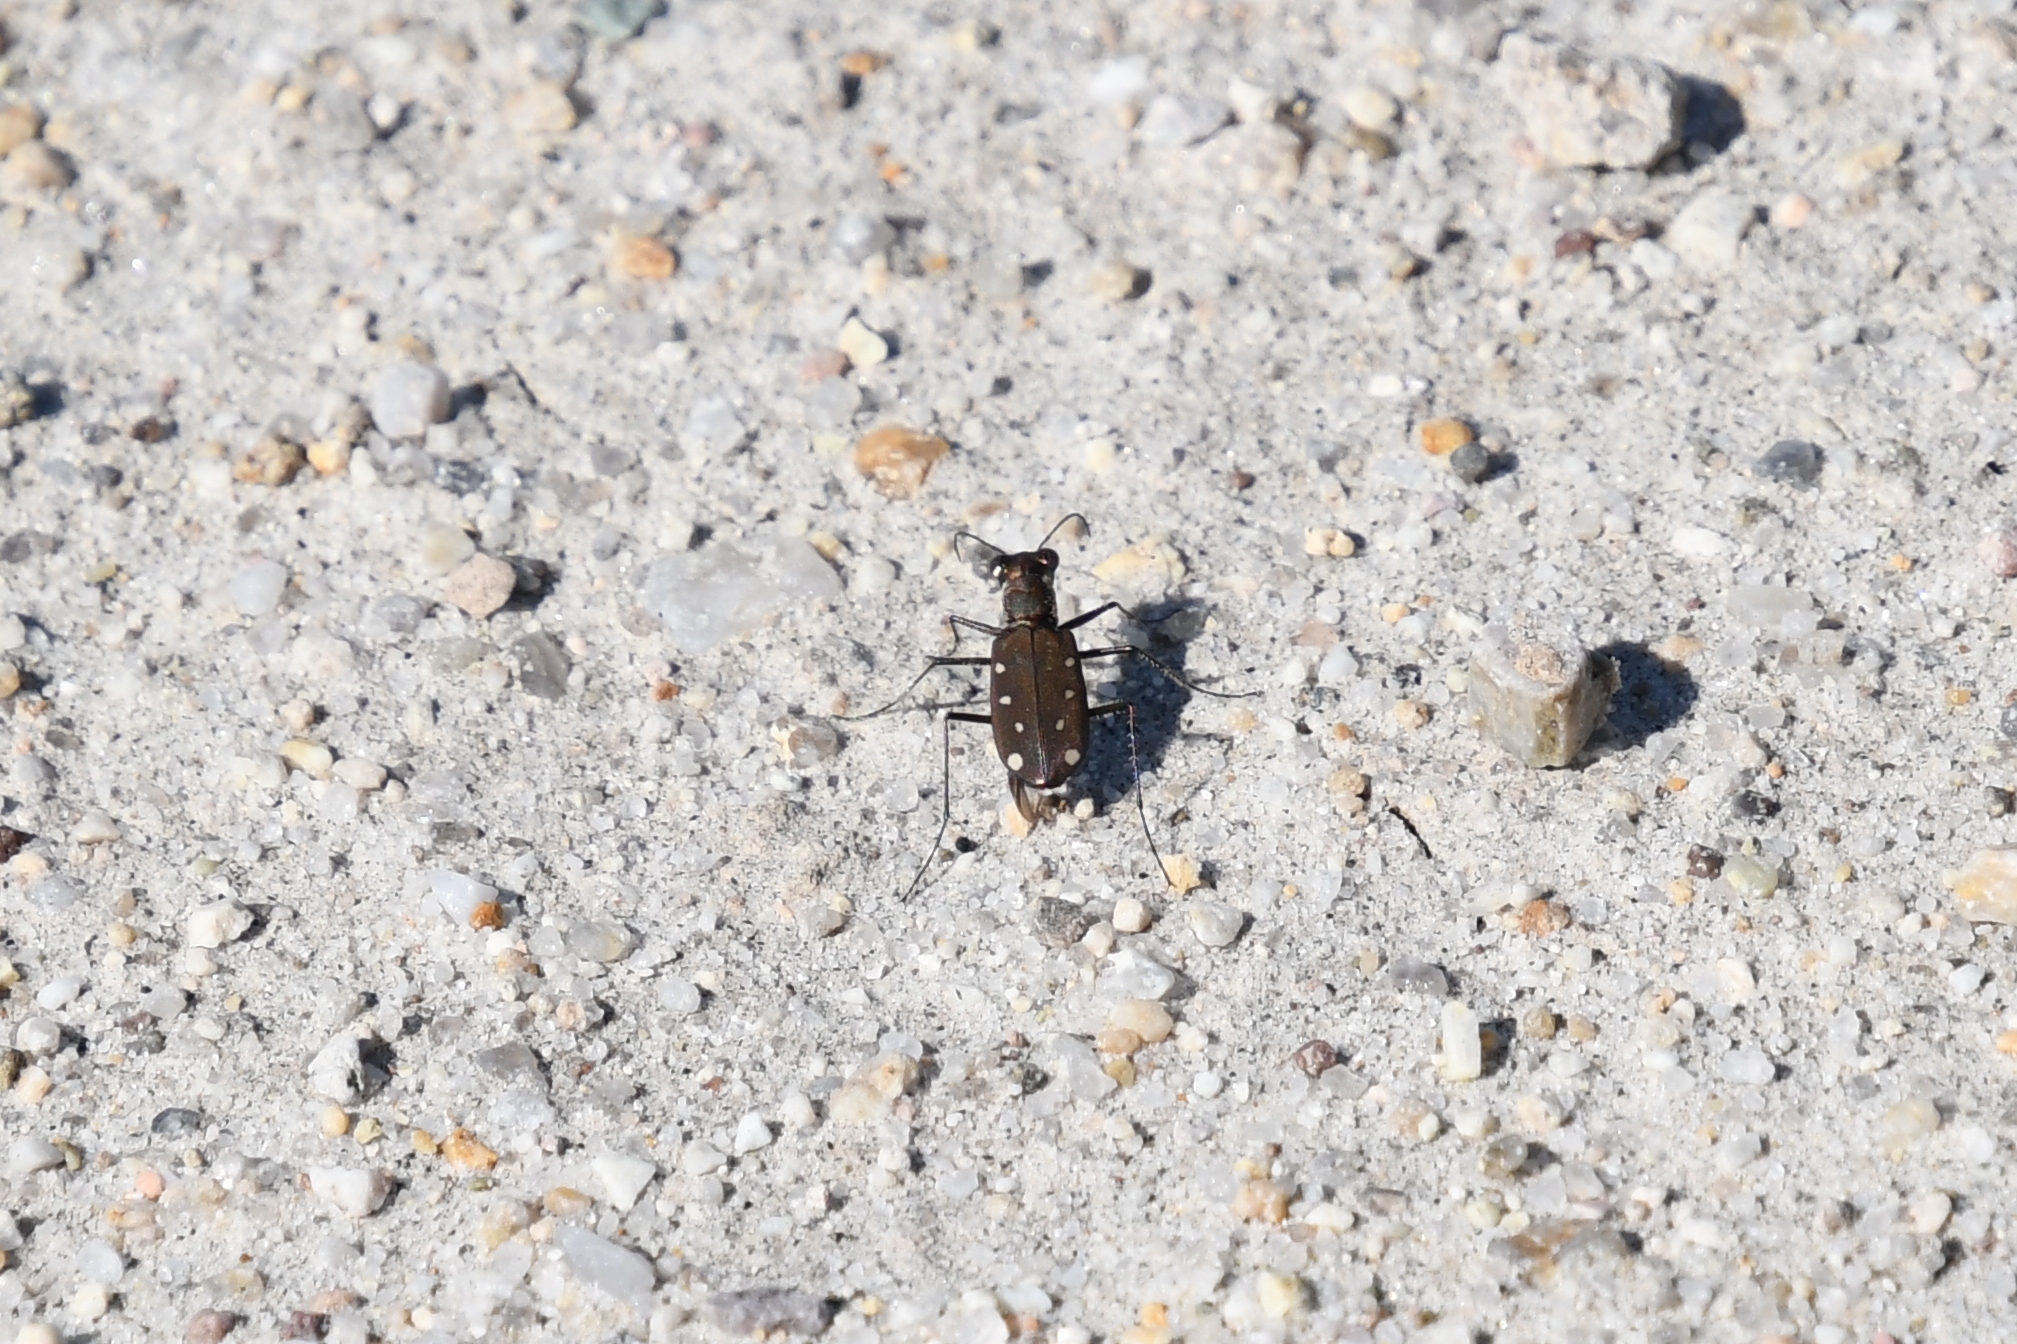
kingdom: Animalia
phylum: Arthropoda
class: Insecta
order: Coleoptera
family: Carabidae
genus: Cicindela
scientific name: Cicindela ocellata
